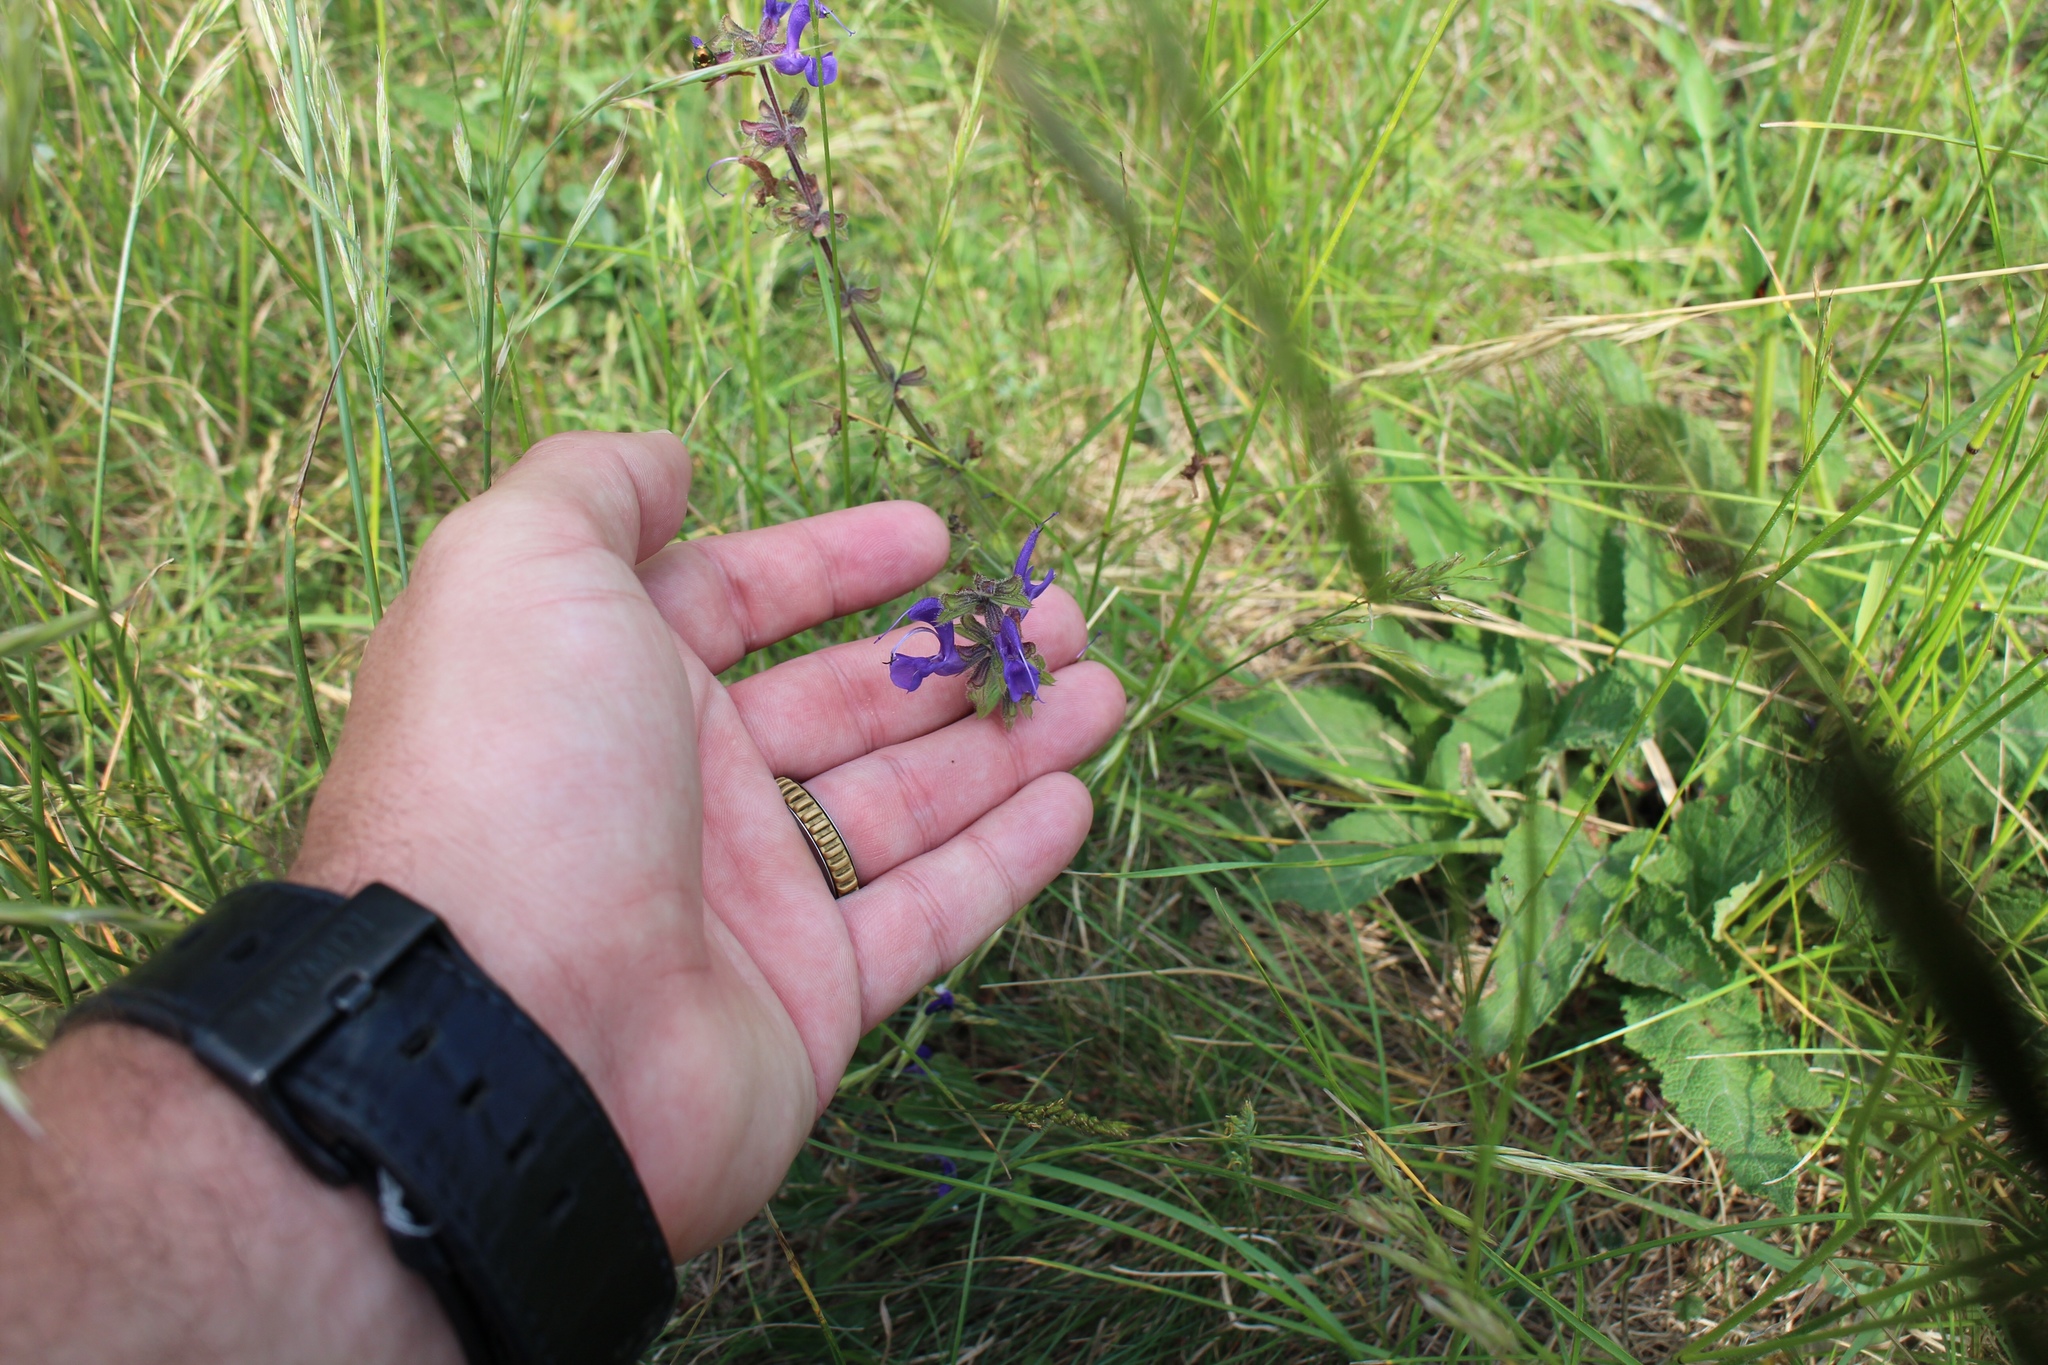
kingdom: Plantae
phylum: Tracheophyta
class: Magnoliopsida
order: Lamiales
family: Lamiaceae
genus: Salvia
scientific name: Salvia pratensis
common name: Meadow sage
